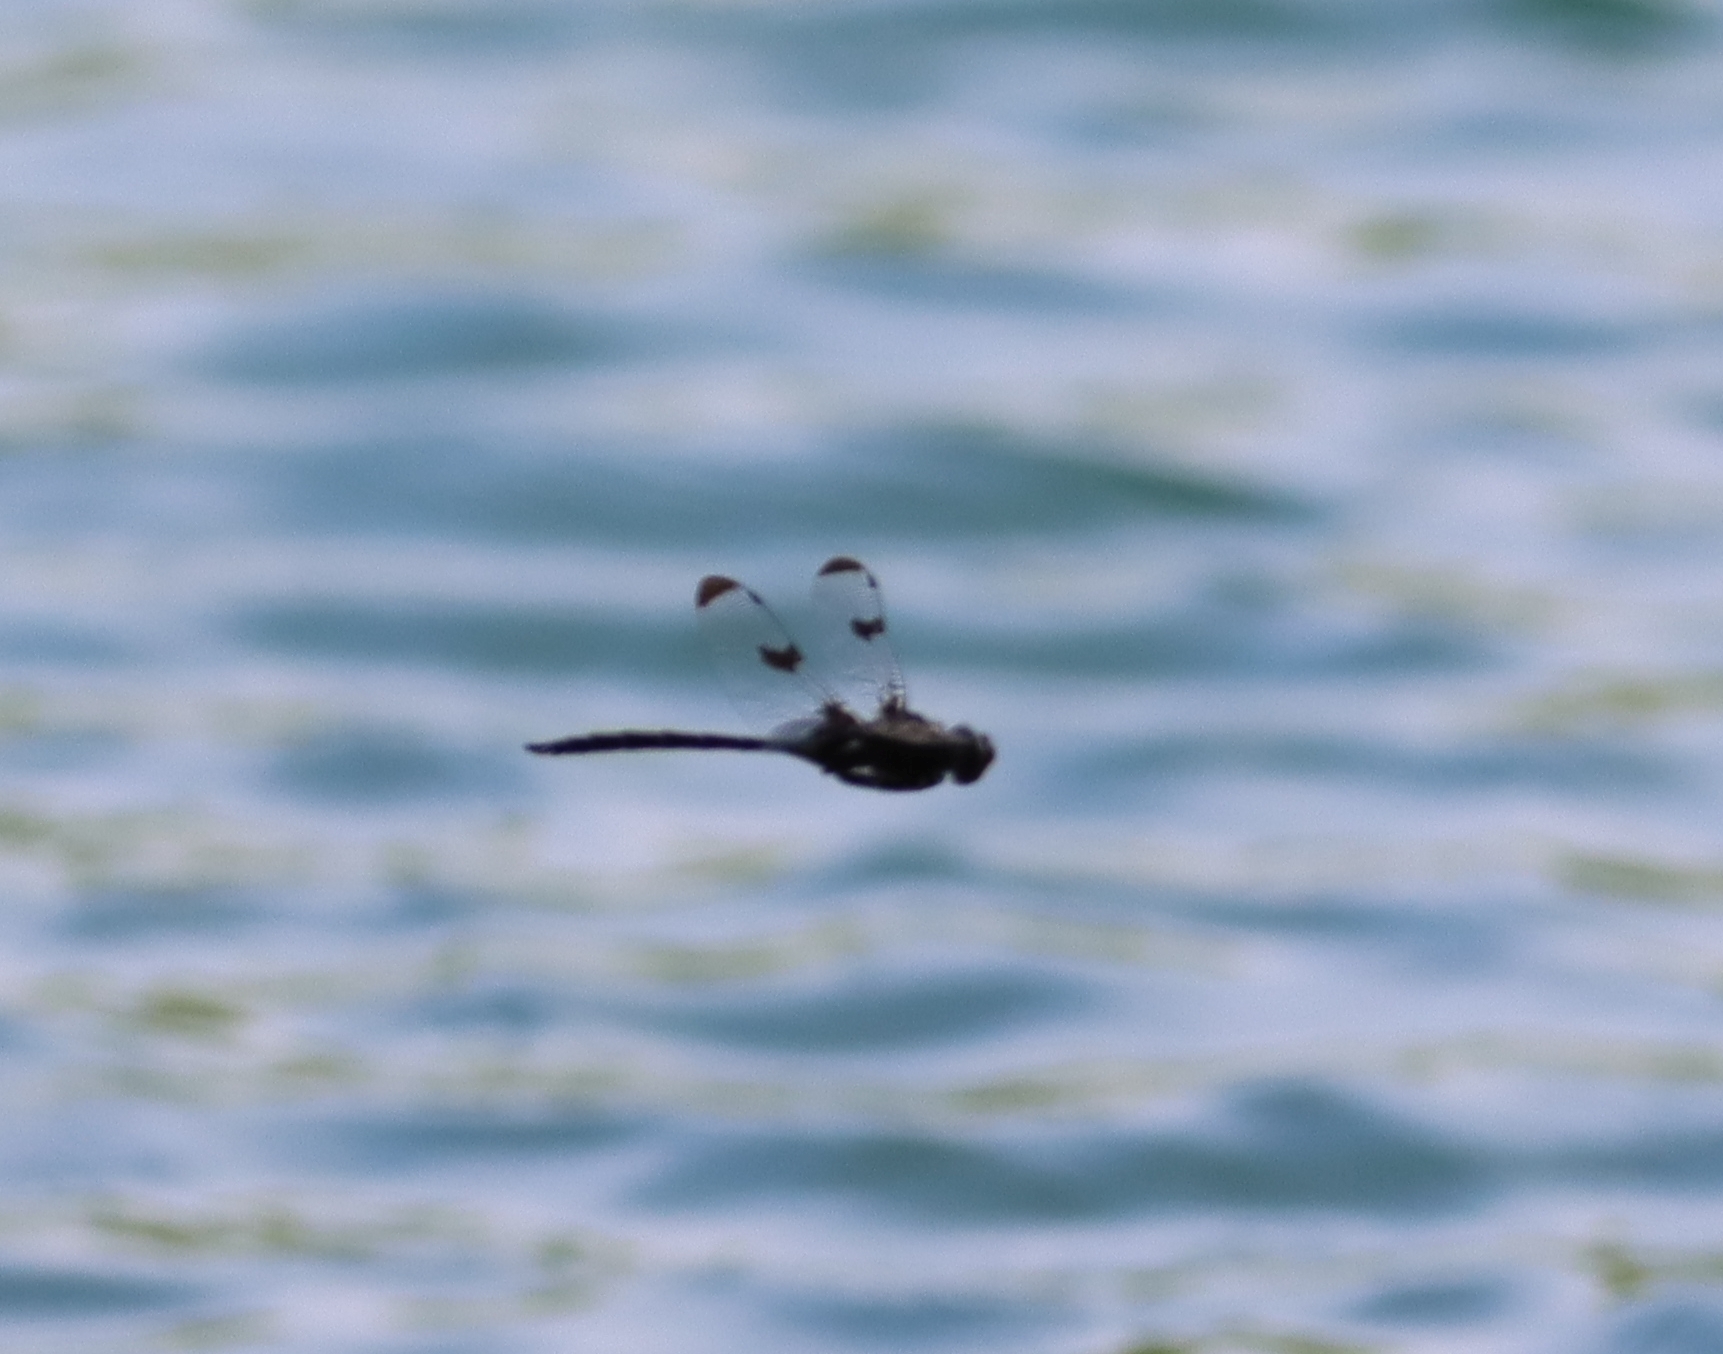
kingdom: Animalia
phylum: Arthropoda
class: Insecta
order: Odonata
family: Corduliidae
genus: Epitheca
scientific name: Epitheca princeps
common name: Prince baskettail
